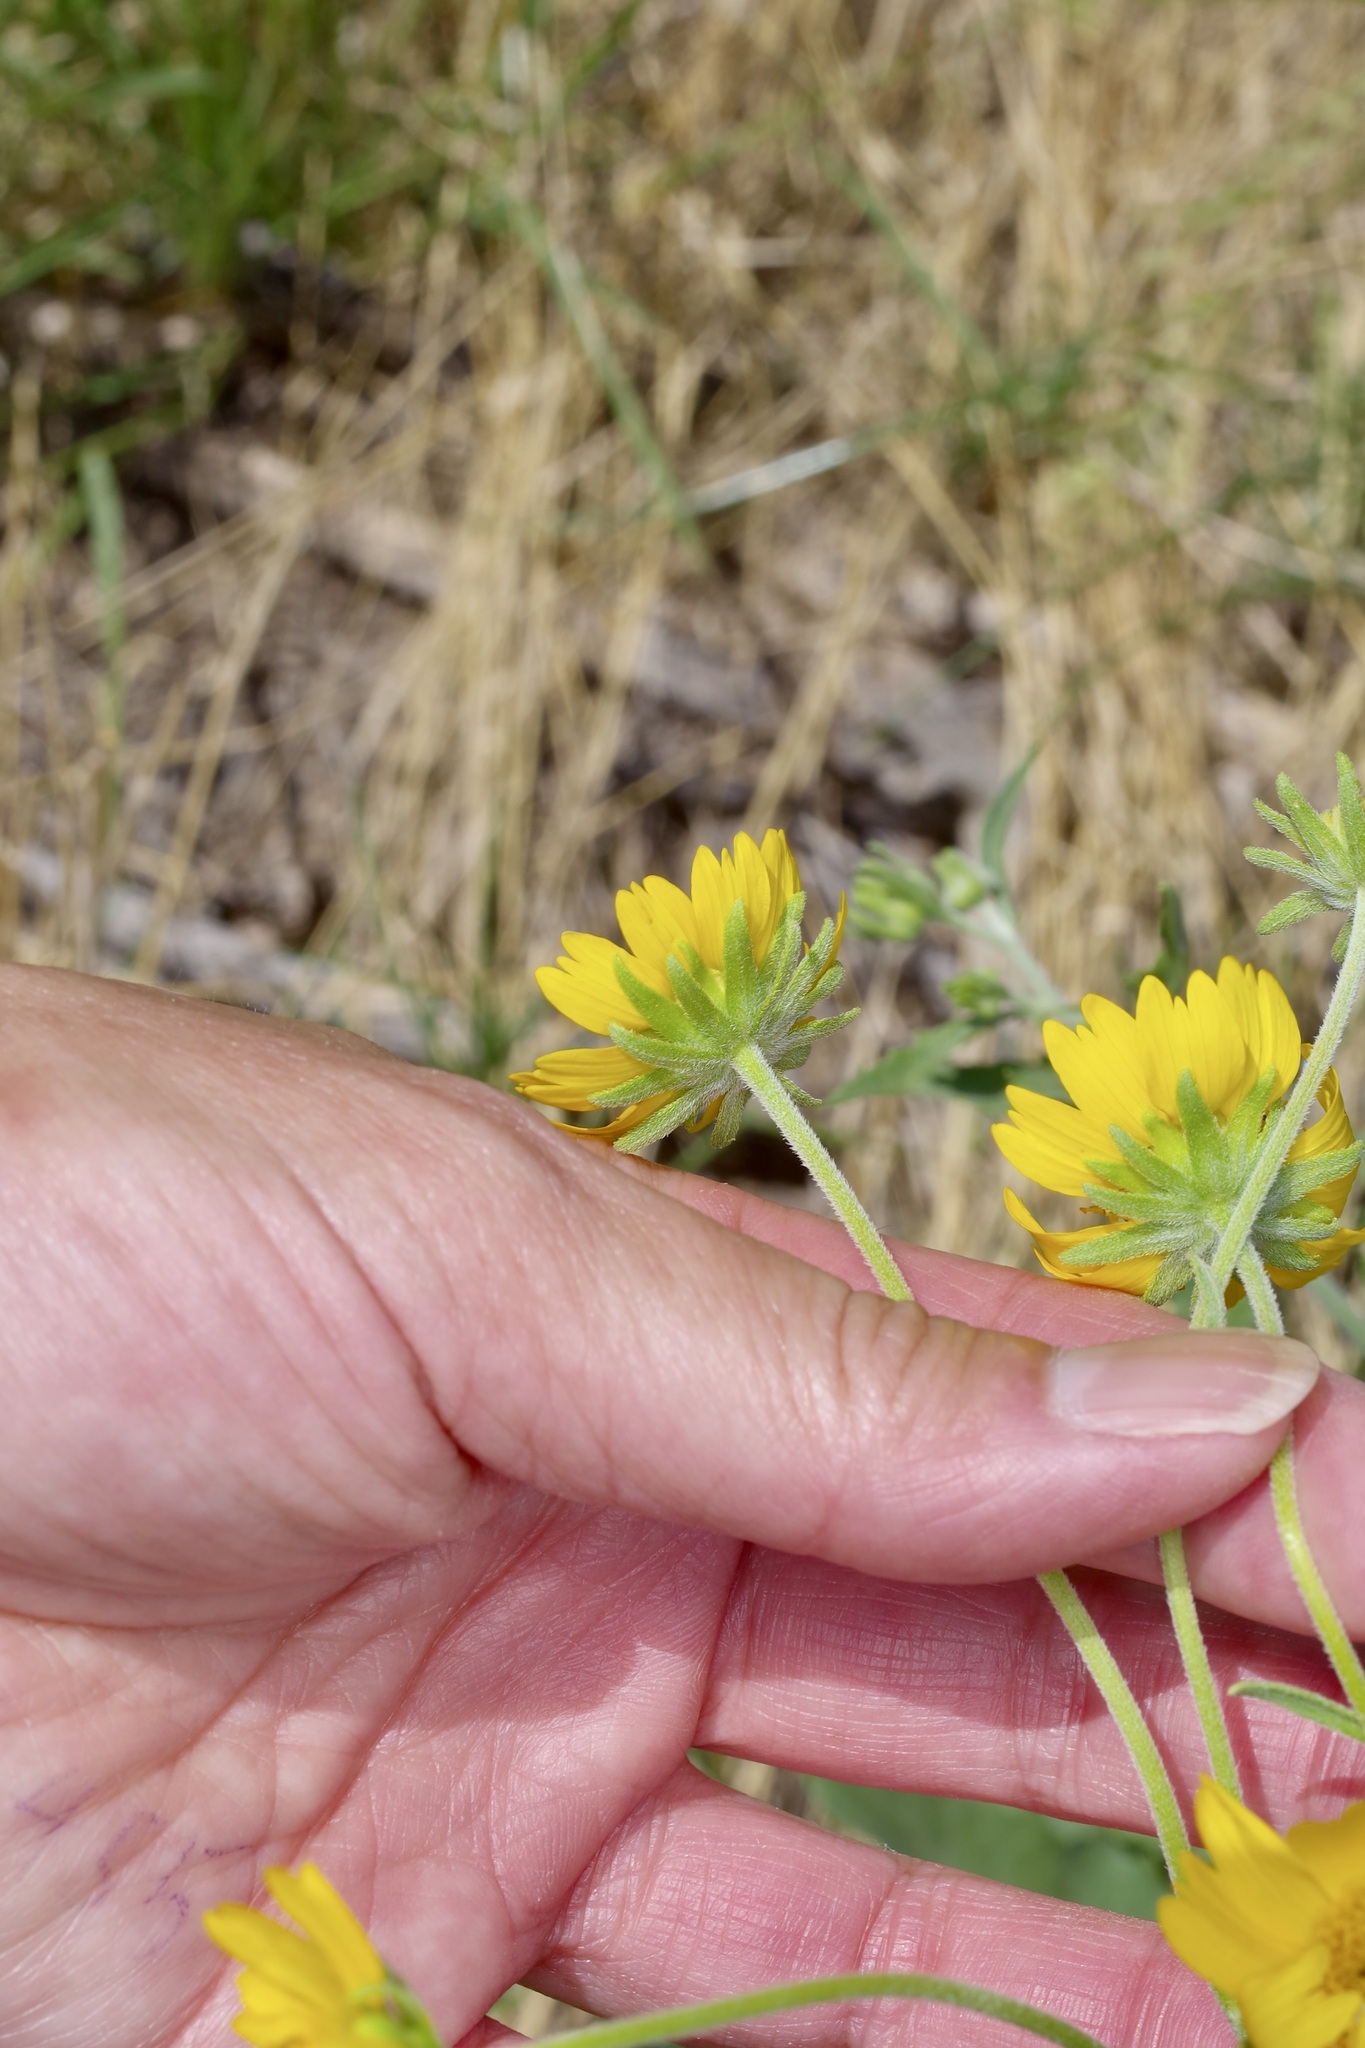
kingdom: Plantae
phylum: Tracheophyta
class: Magnoliopsida
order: Asterales
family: Asteraceae
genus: Verbesina
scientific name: Verbesina encelioides
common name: Golden crownbeard
